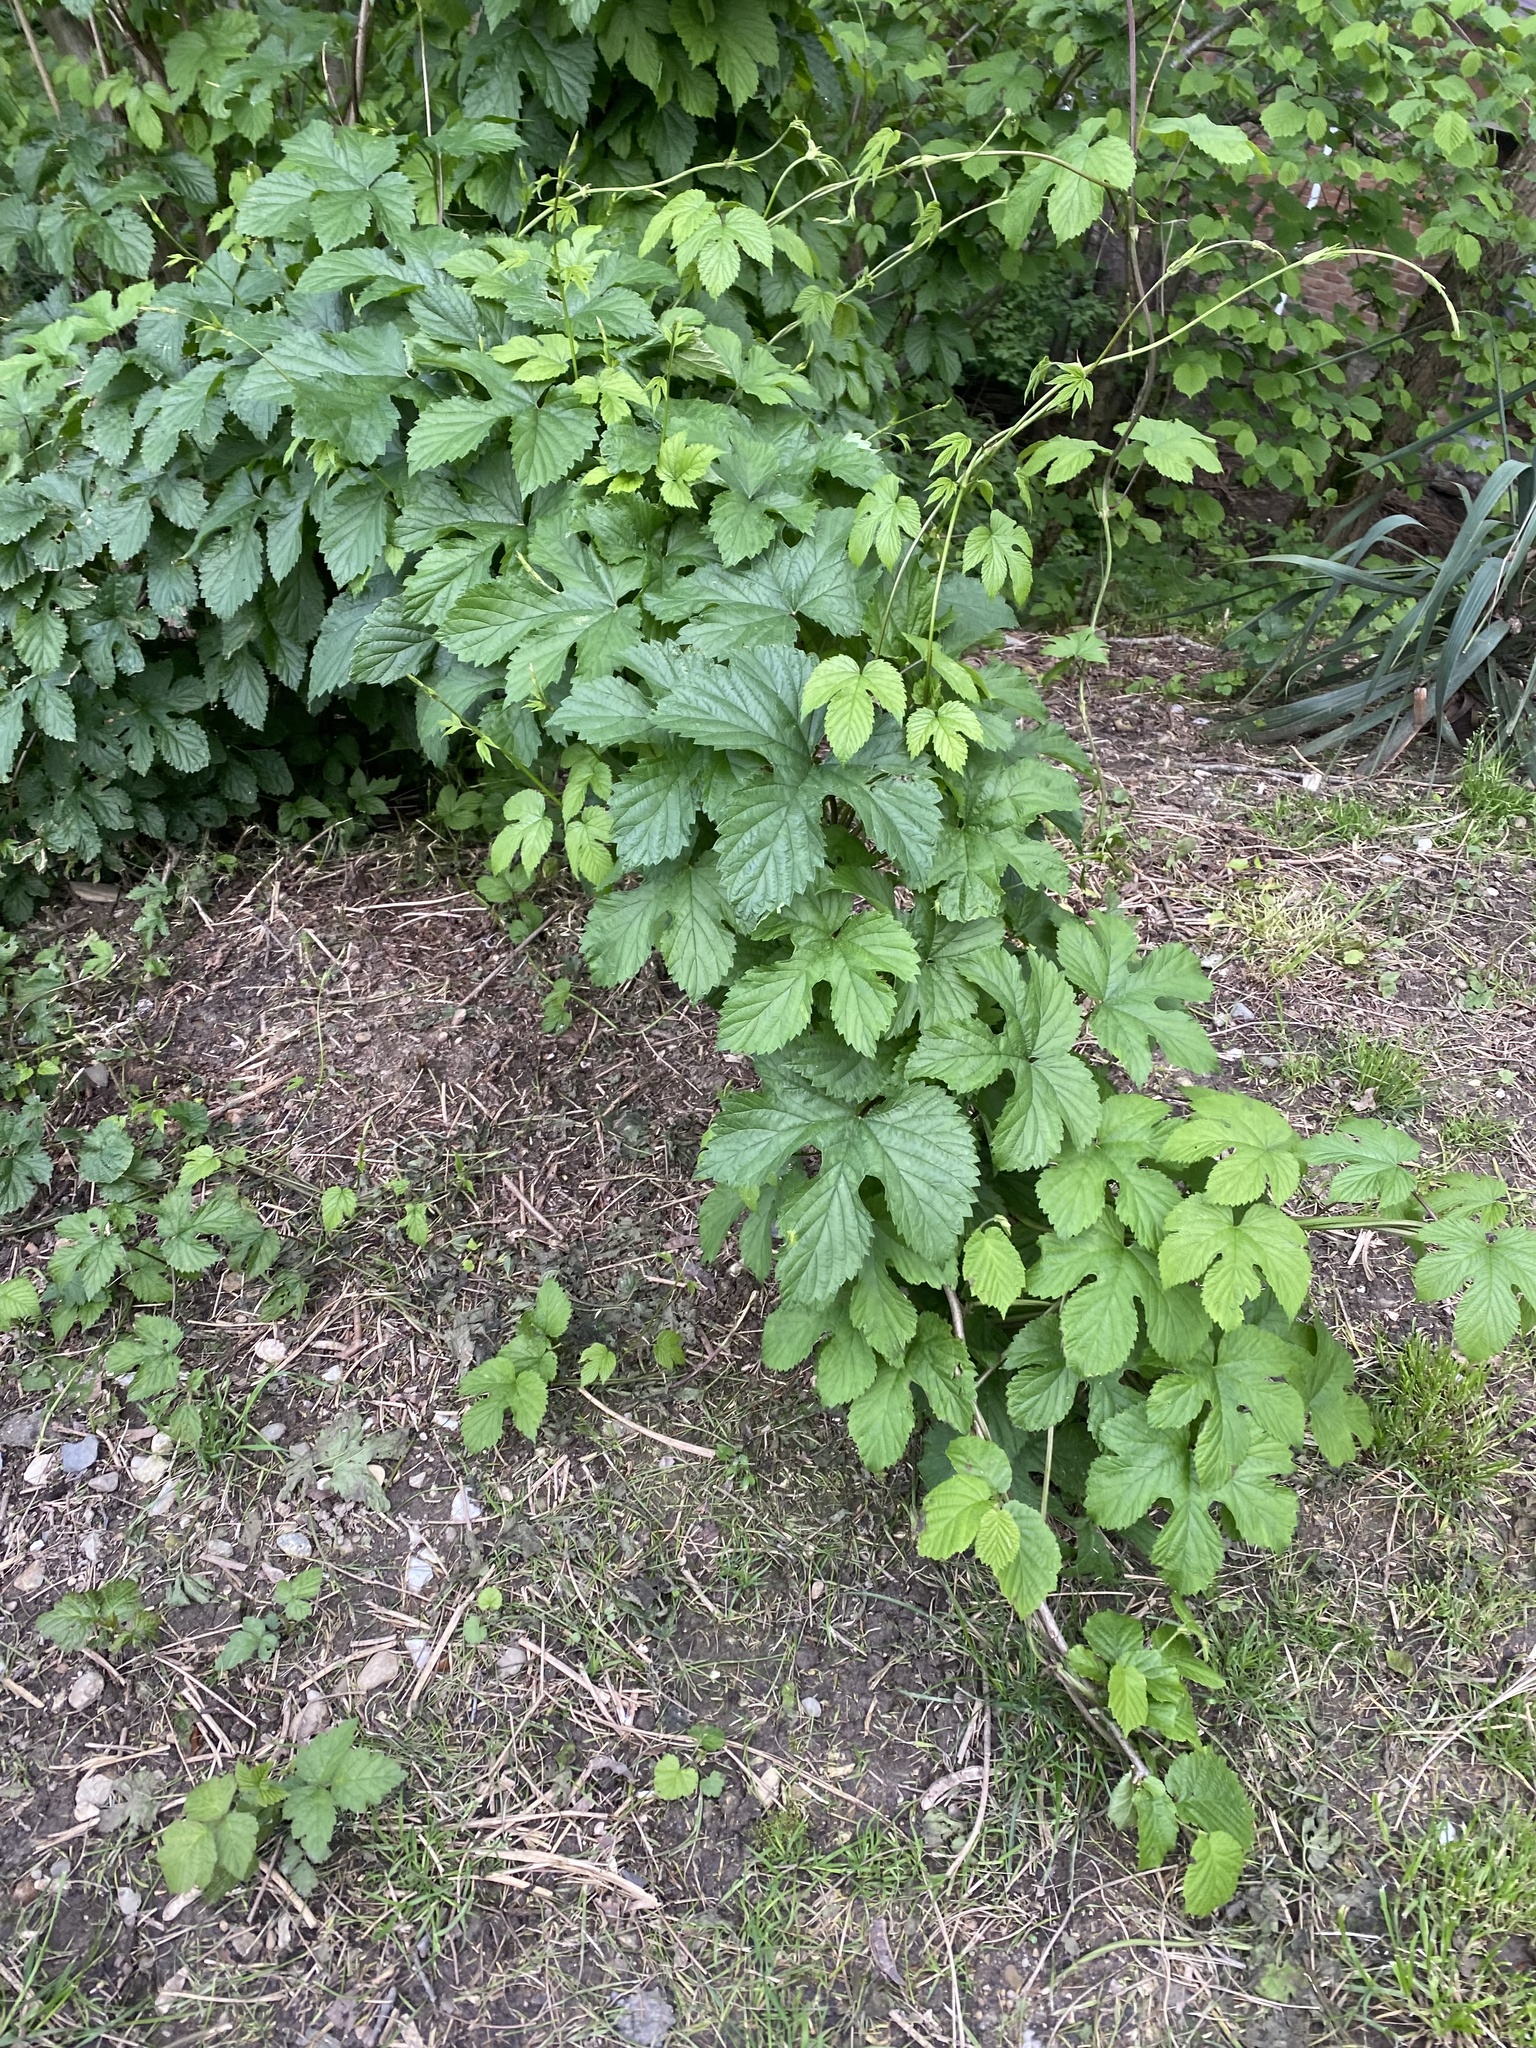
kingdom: Plantae
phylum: Tracheophyta
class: Magnoliopsida
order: Rosales
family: Cannabaceae
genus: Humulus
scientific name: Humulus lupulus
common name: Hop
